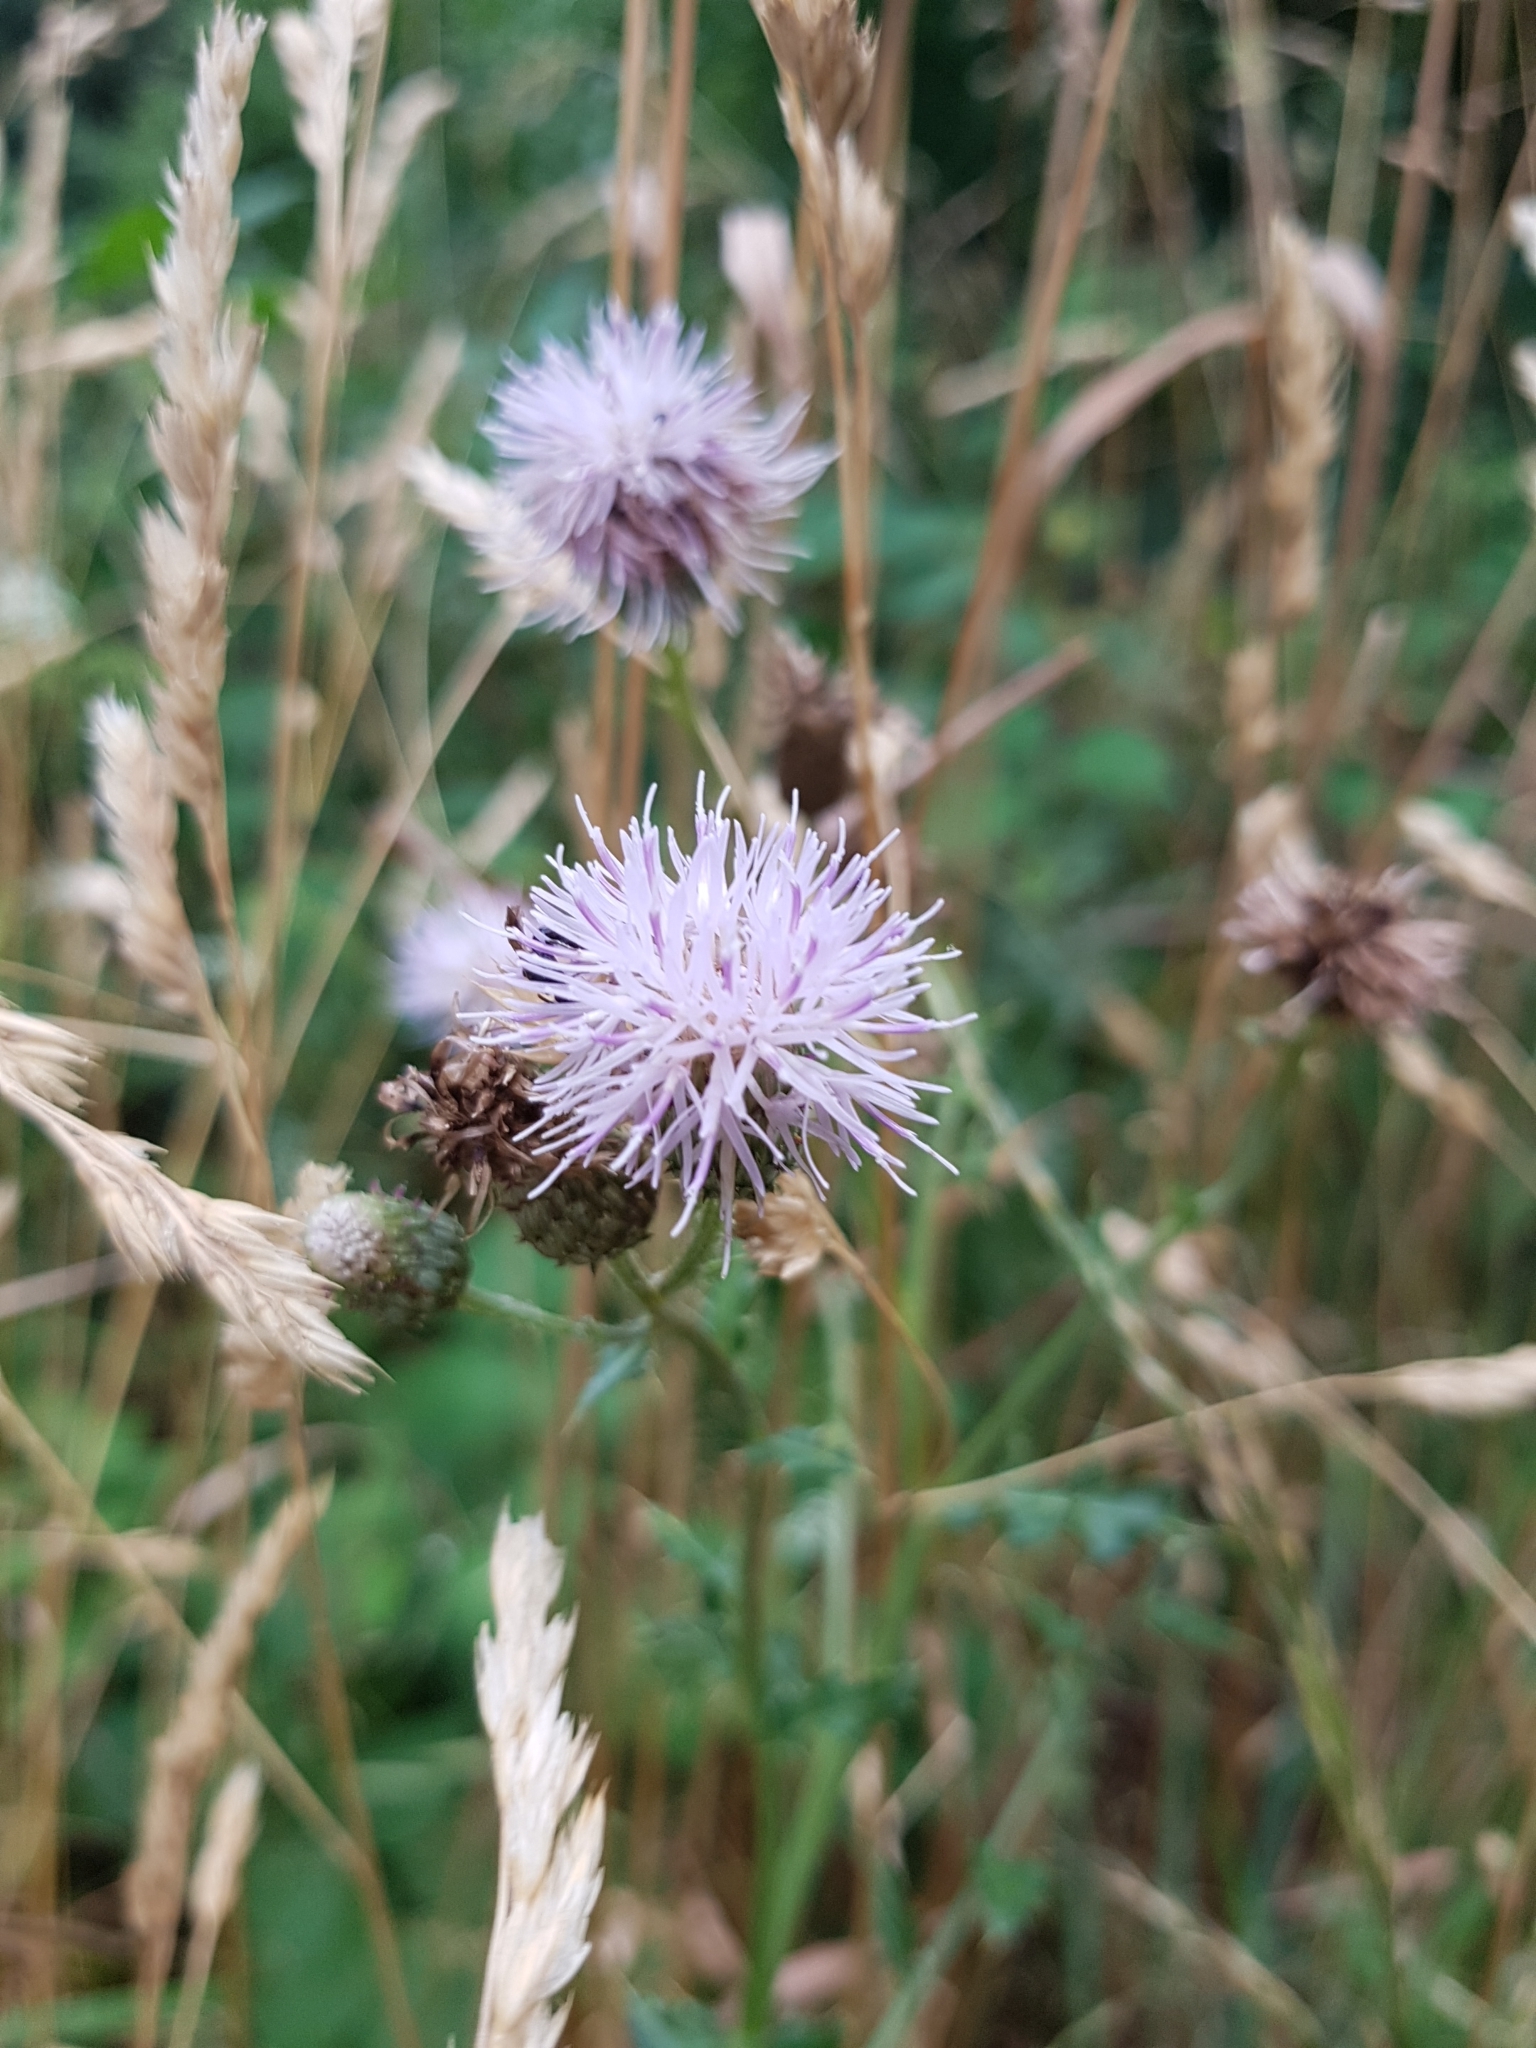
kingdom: Plantae
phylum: Tracheophyta
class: Magnoliopsida
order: Asterales
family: Asteraceae
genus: Cirsium
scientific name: Cirsium arvense
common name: Creeping thistle
